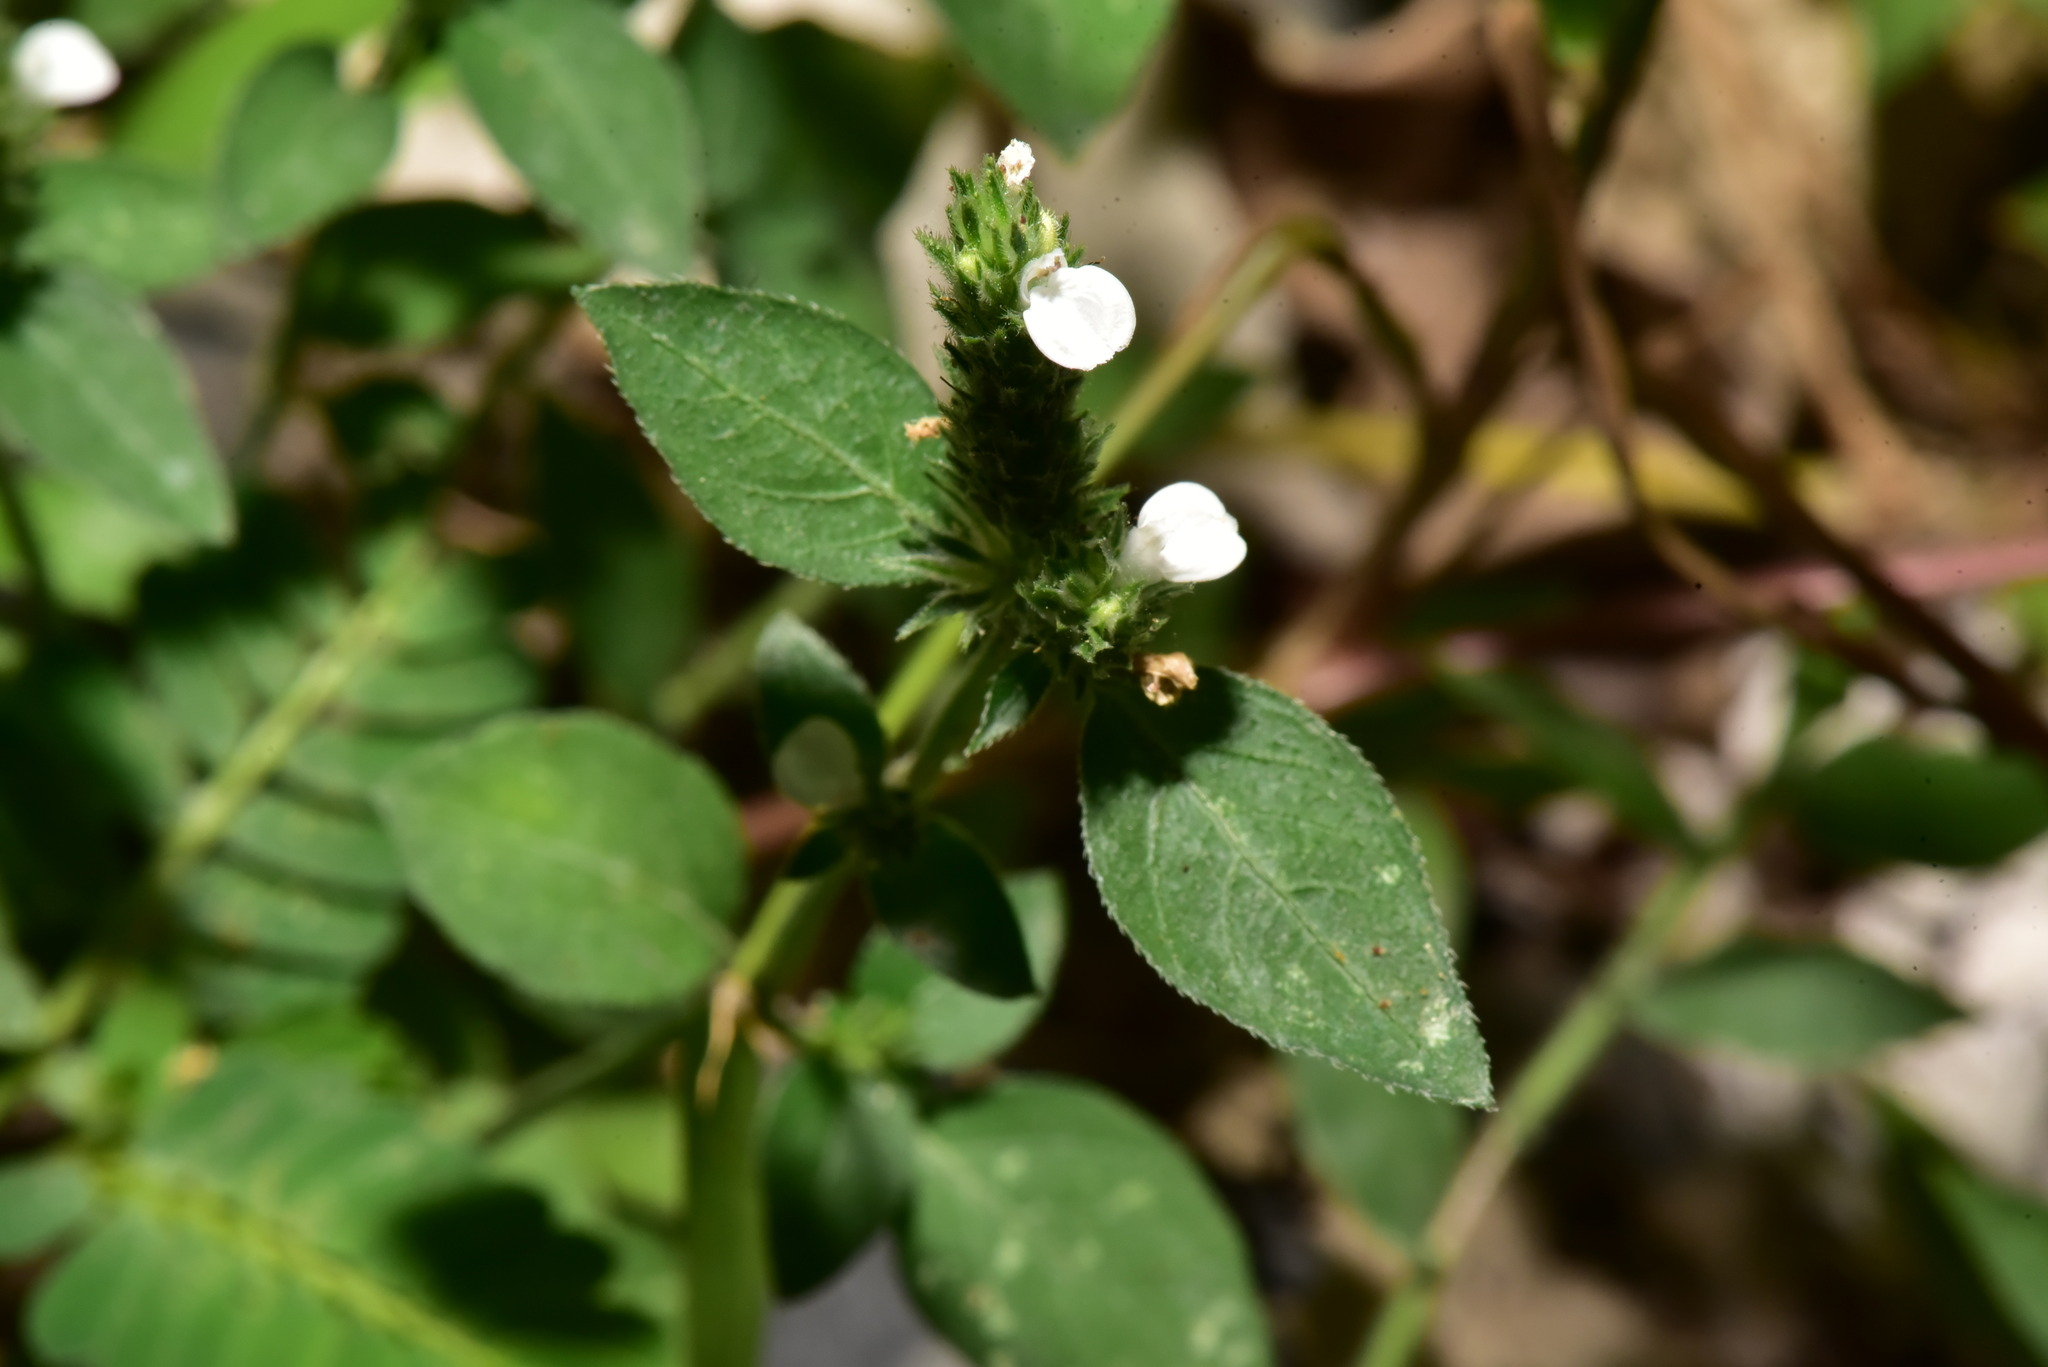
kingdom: Plantae
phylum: Tracheophyta
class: Magnoliopsida
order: Lamiales
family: Acanthaceae
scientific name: Acanthaceae
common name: Acanthaceae
